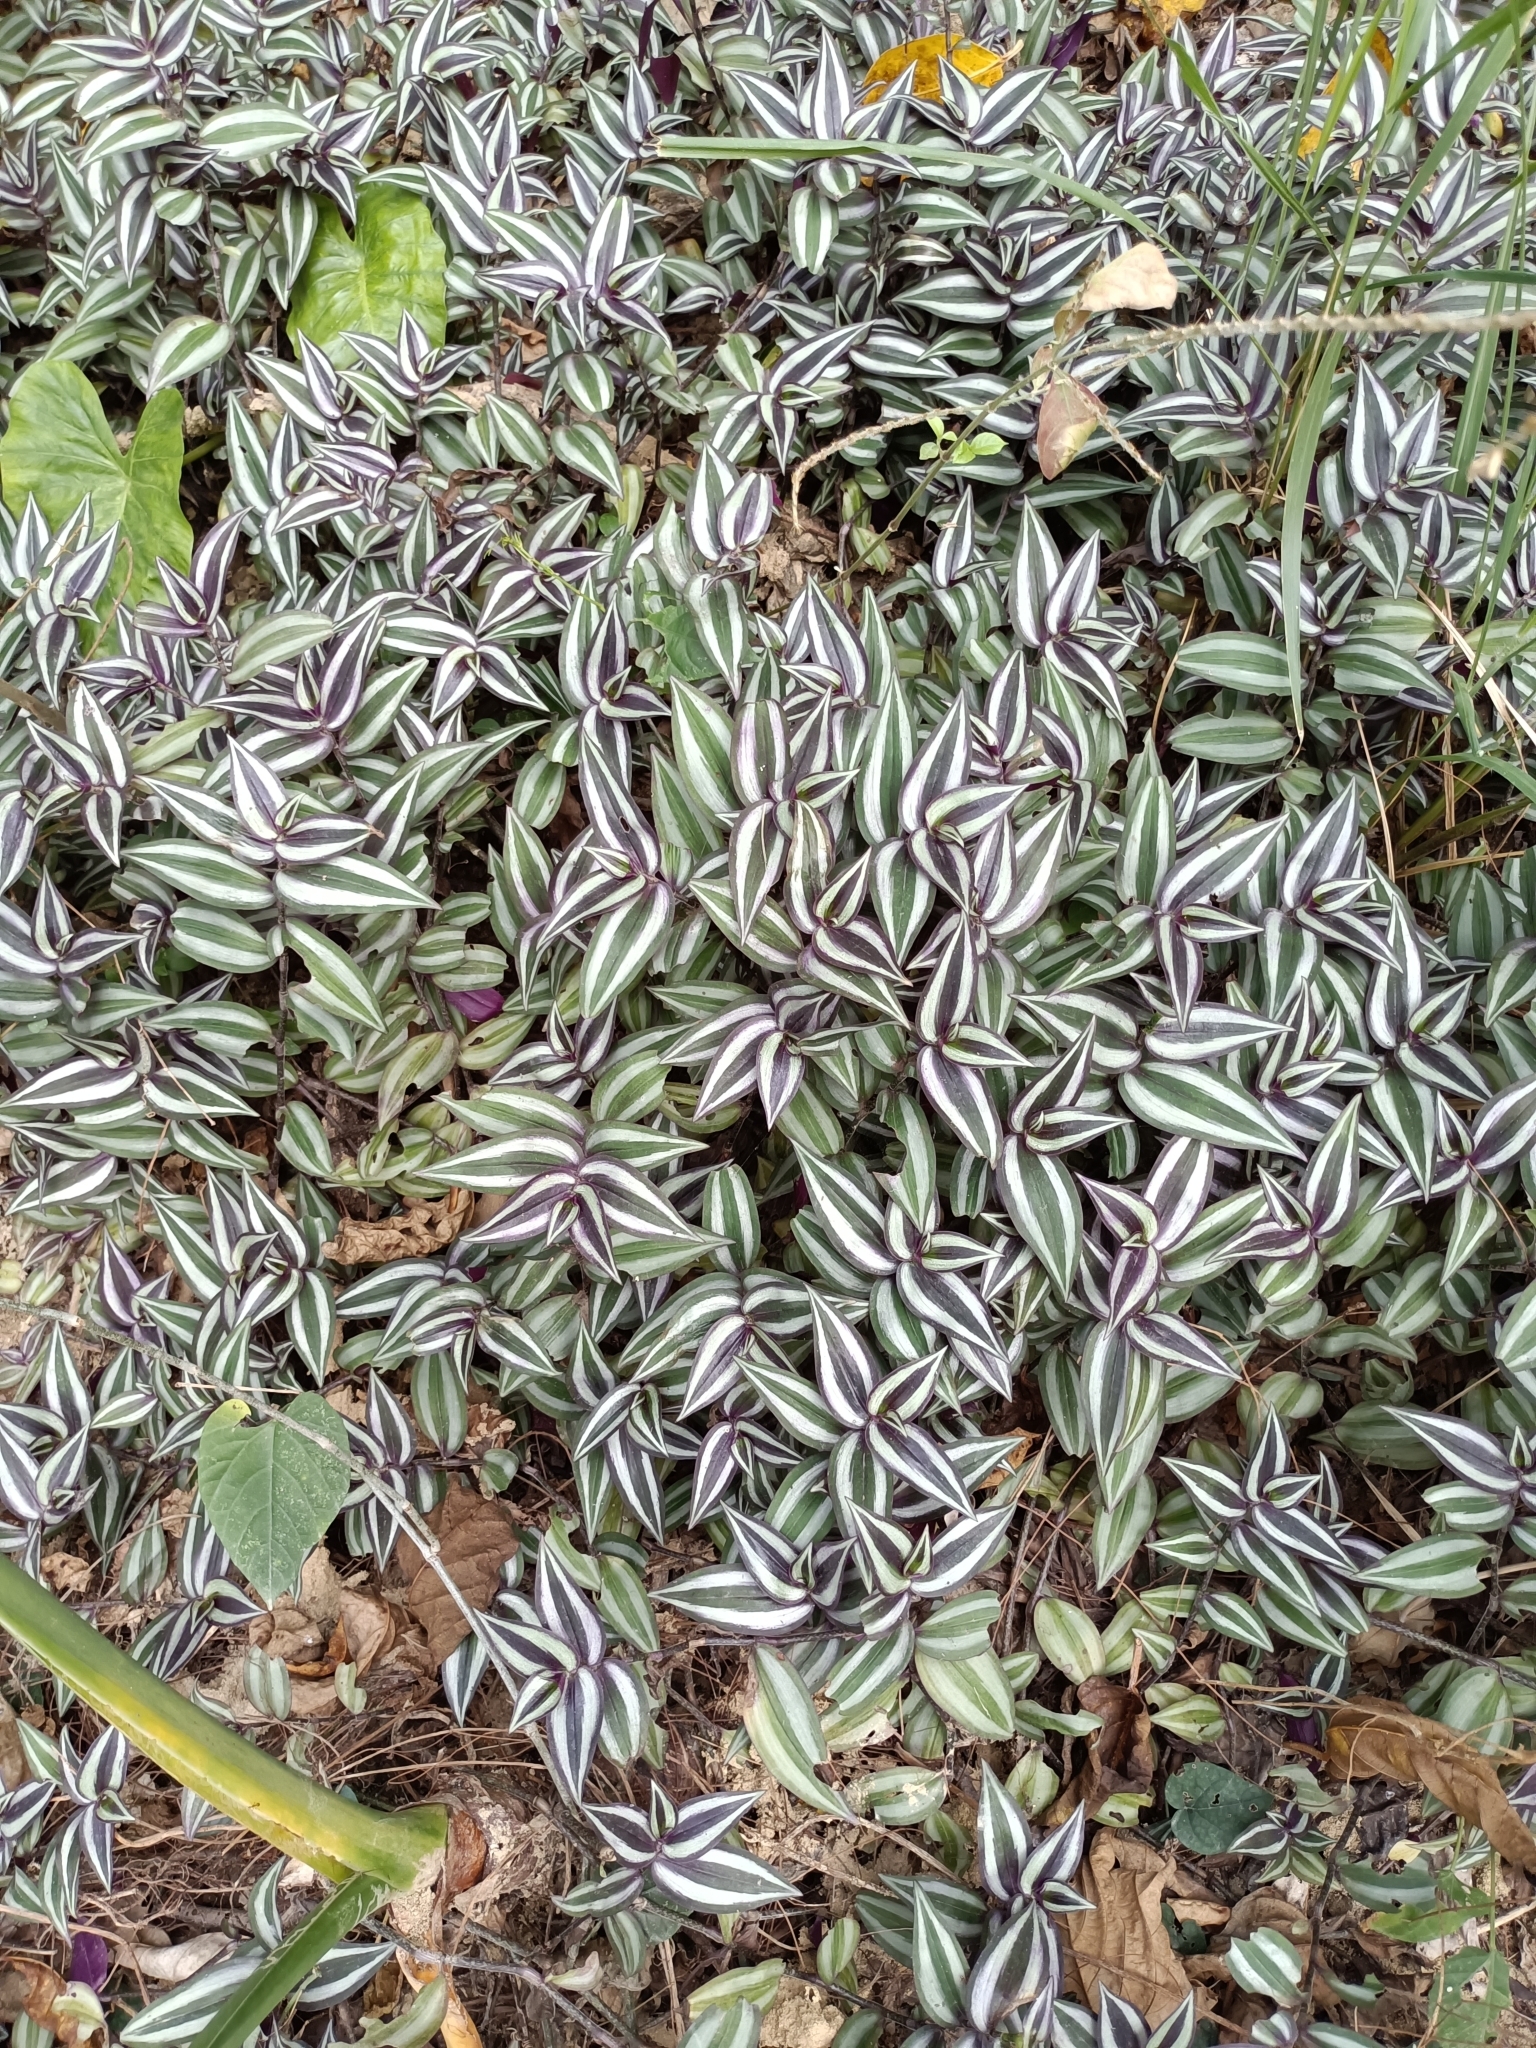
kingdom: Plantae
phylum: Tracheophyta
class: Liliopsida
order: Commelinales
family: Commelinaceae
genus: Tradescantia
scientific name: Tradescantia zebrina
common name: Inchplant
